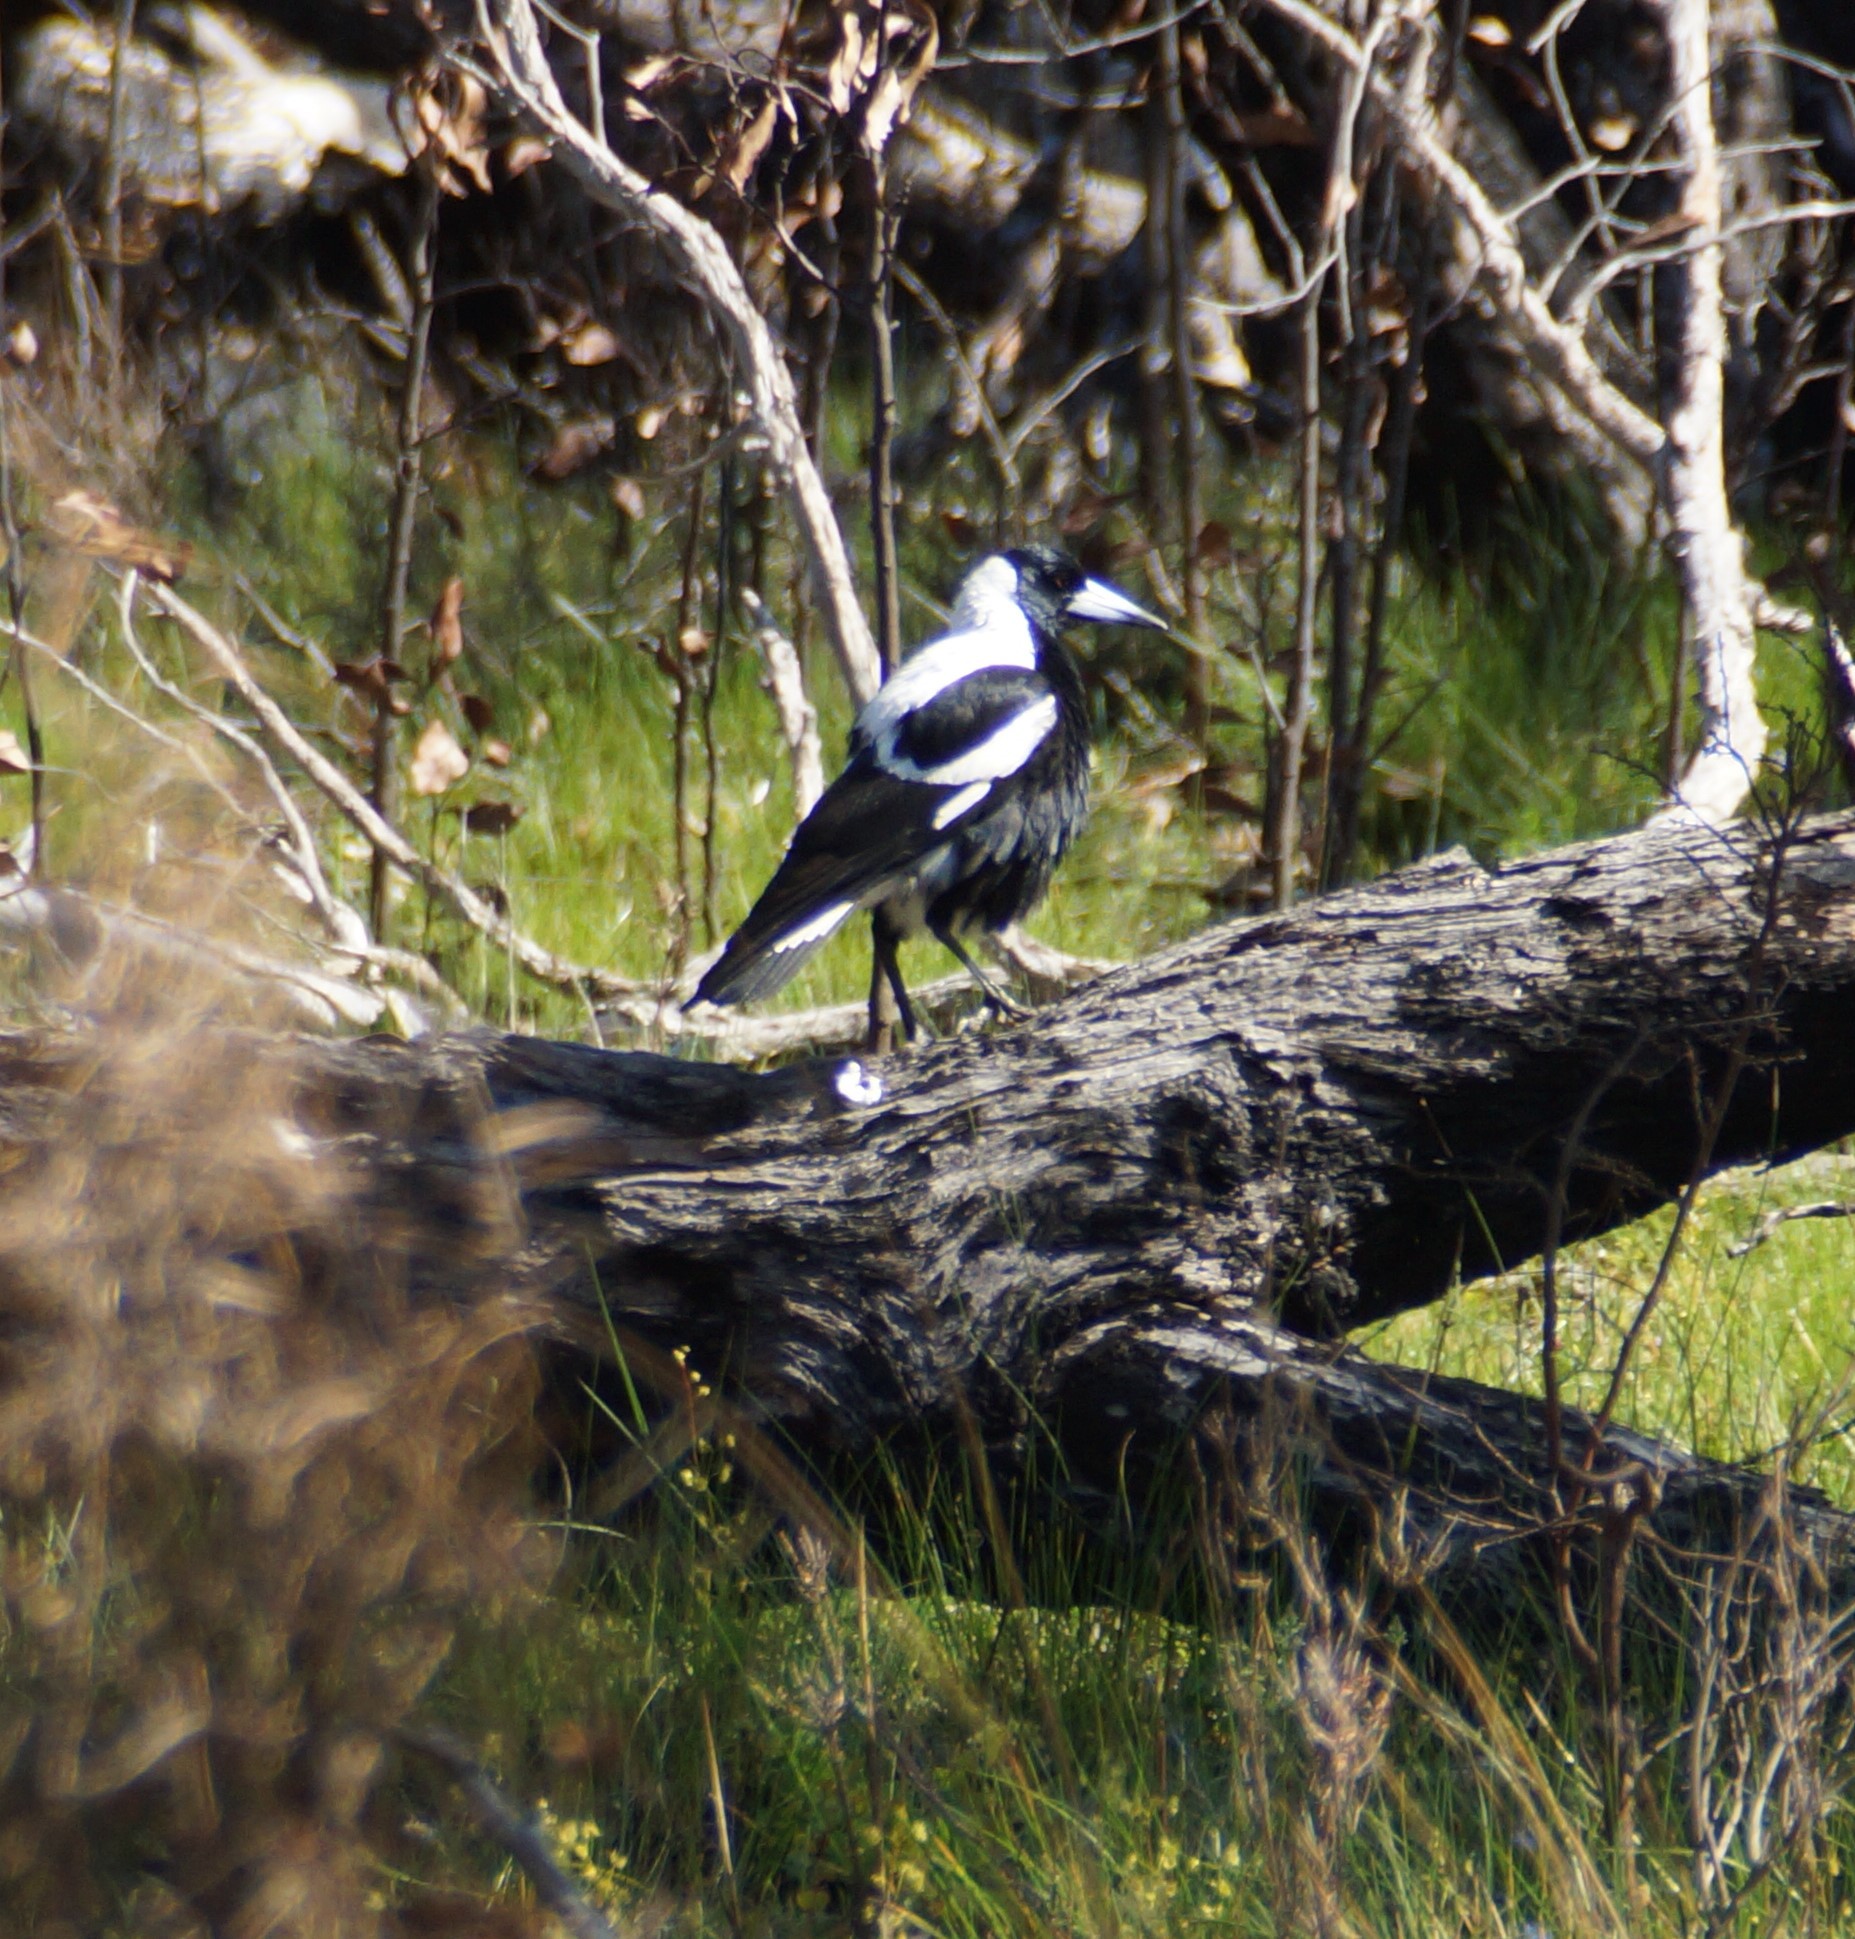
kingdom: Animalia
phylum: Chordata
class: Aves
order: Passeriformes
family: Cracticidae
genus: Gymnorhina
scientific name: Gymnorhina tibicen
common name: Australian magpie
